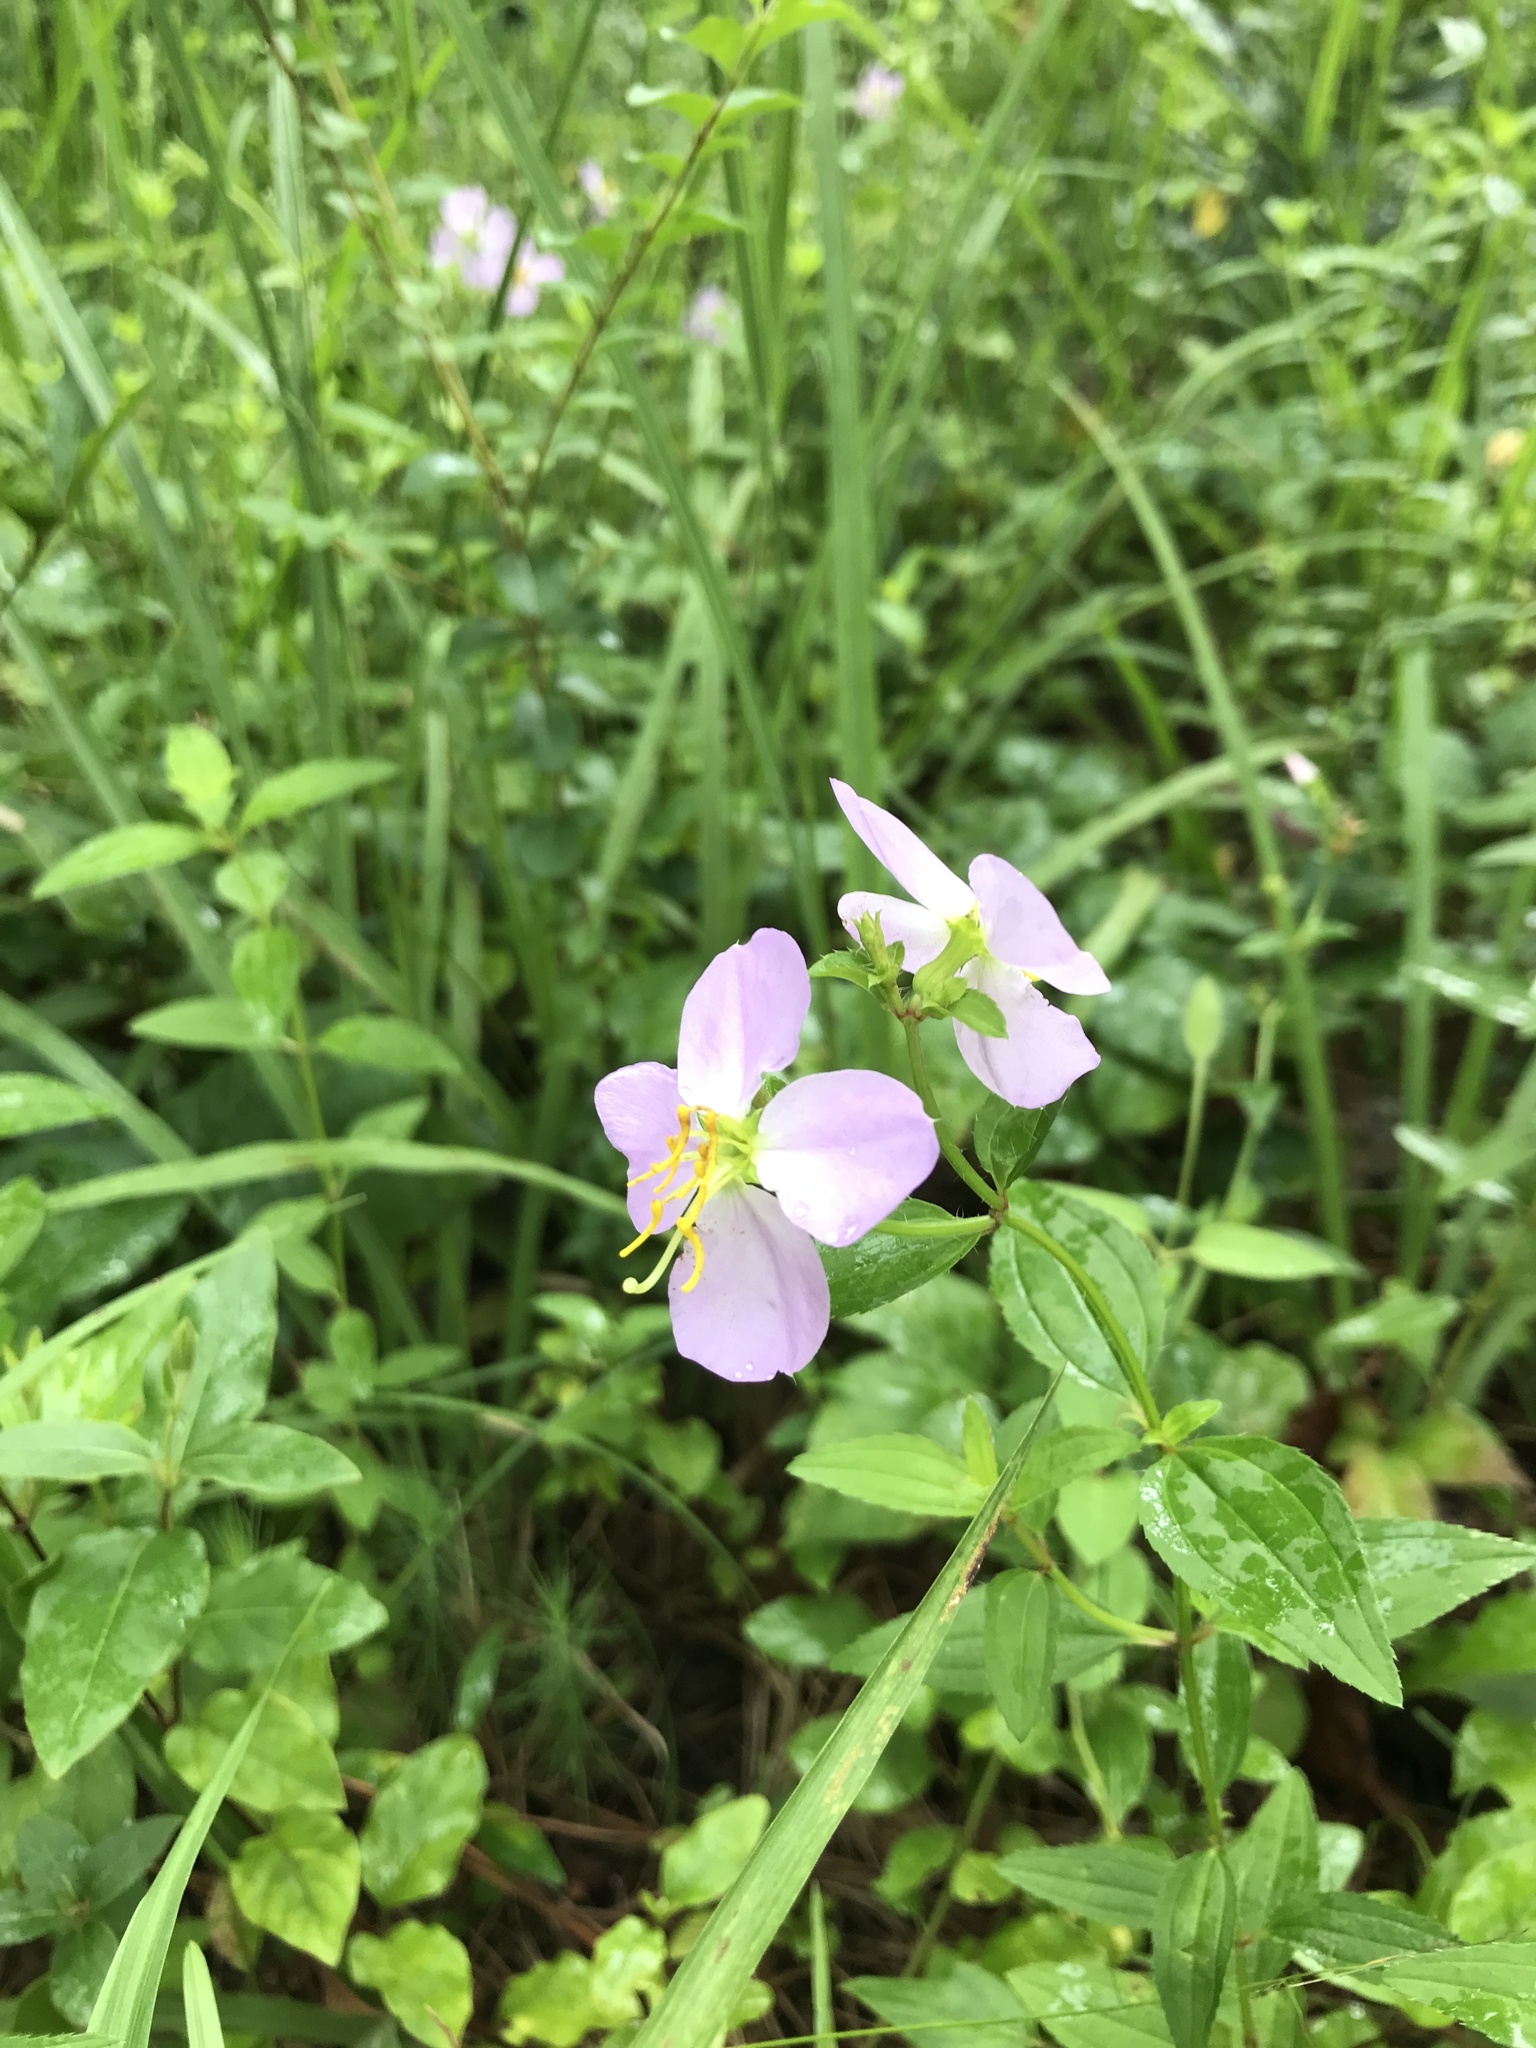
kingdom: Plantae
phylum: Tracheophyta
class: Magnoliopsida
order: Myrtales
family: Melastomataceae
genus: Rhexia
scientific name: Rhexia mariana
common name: Dull meadow-pitcher
